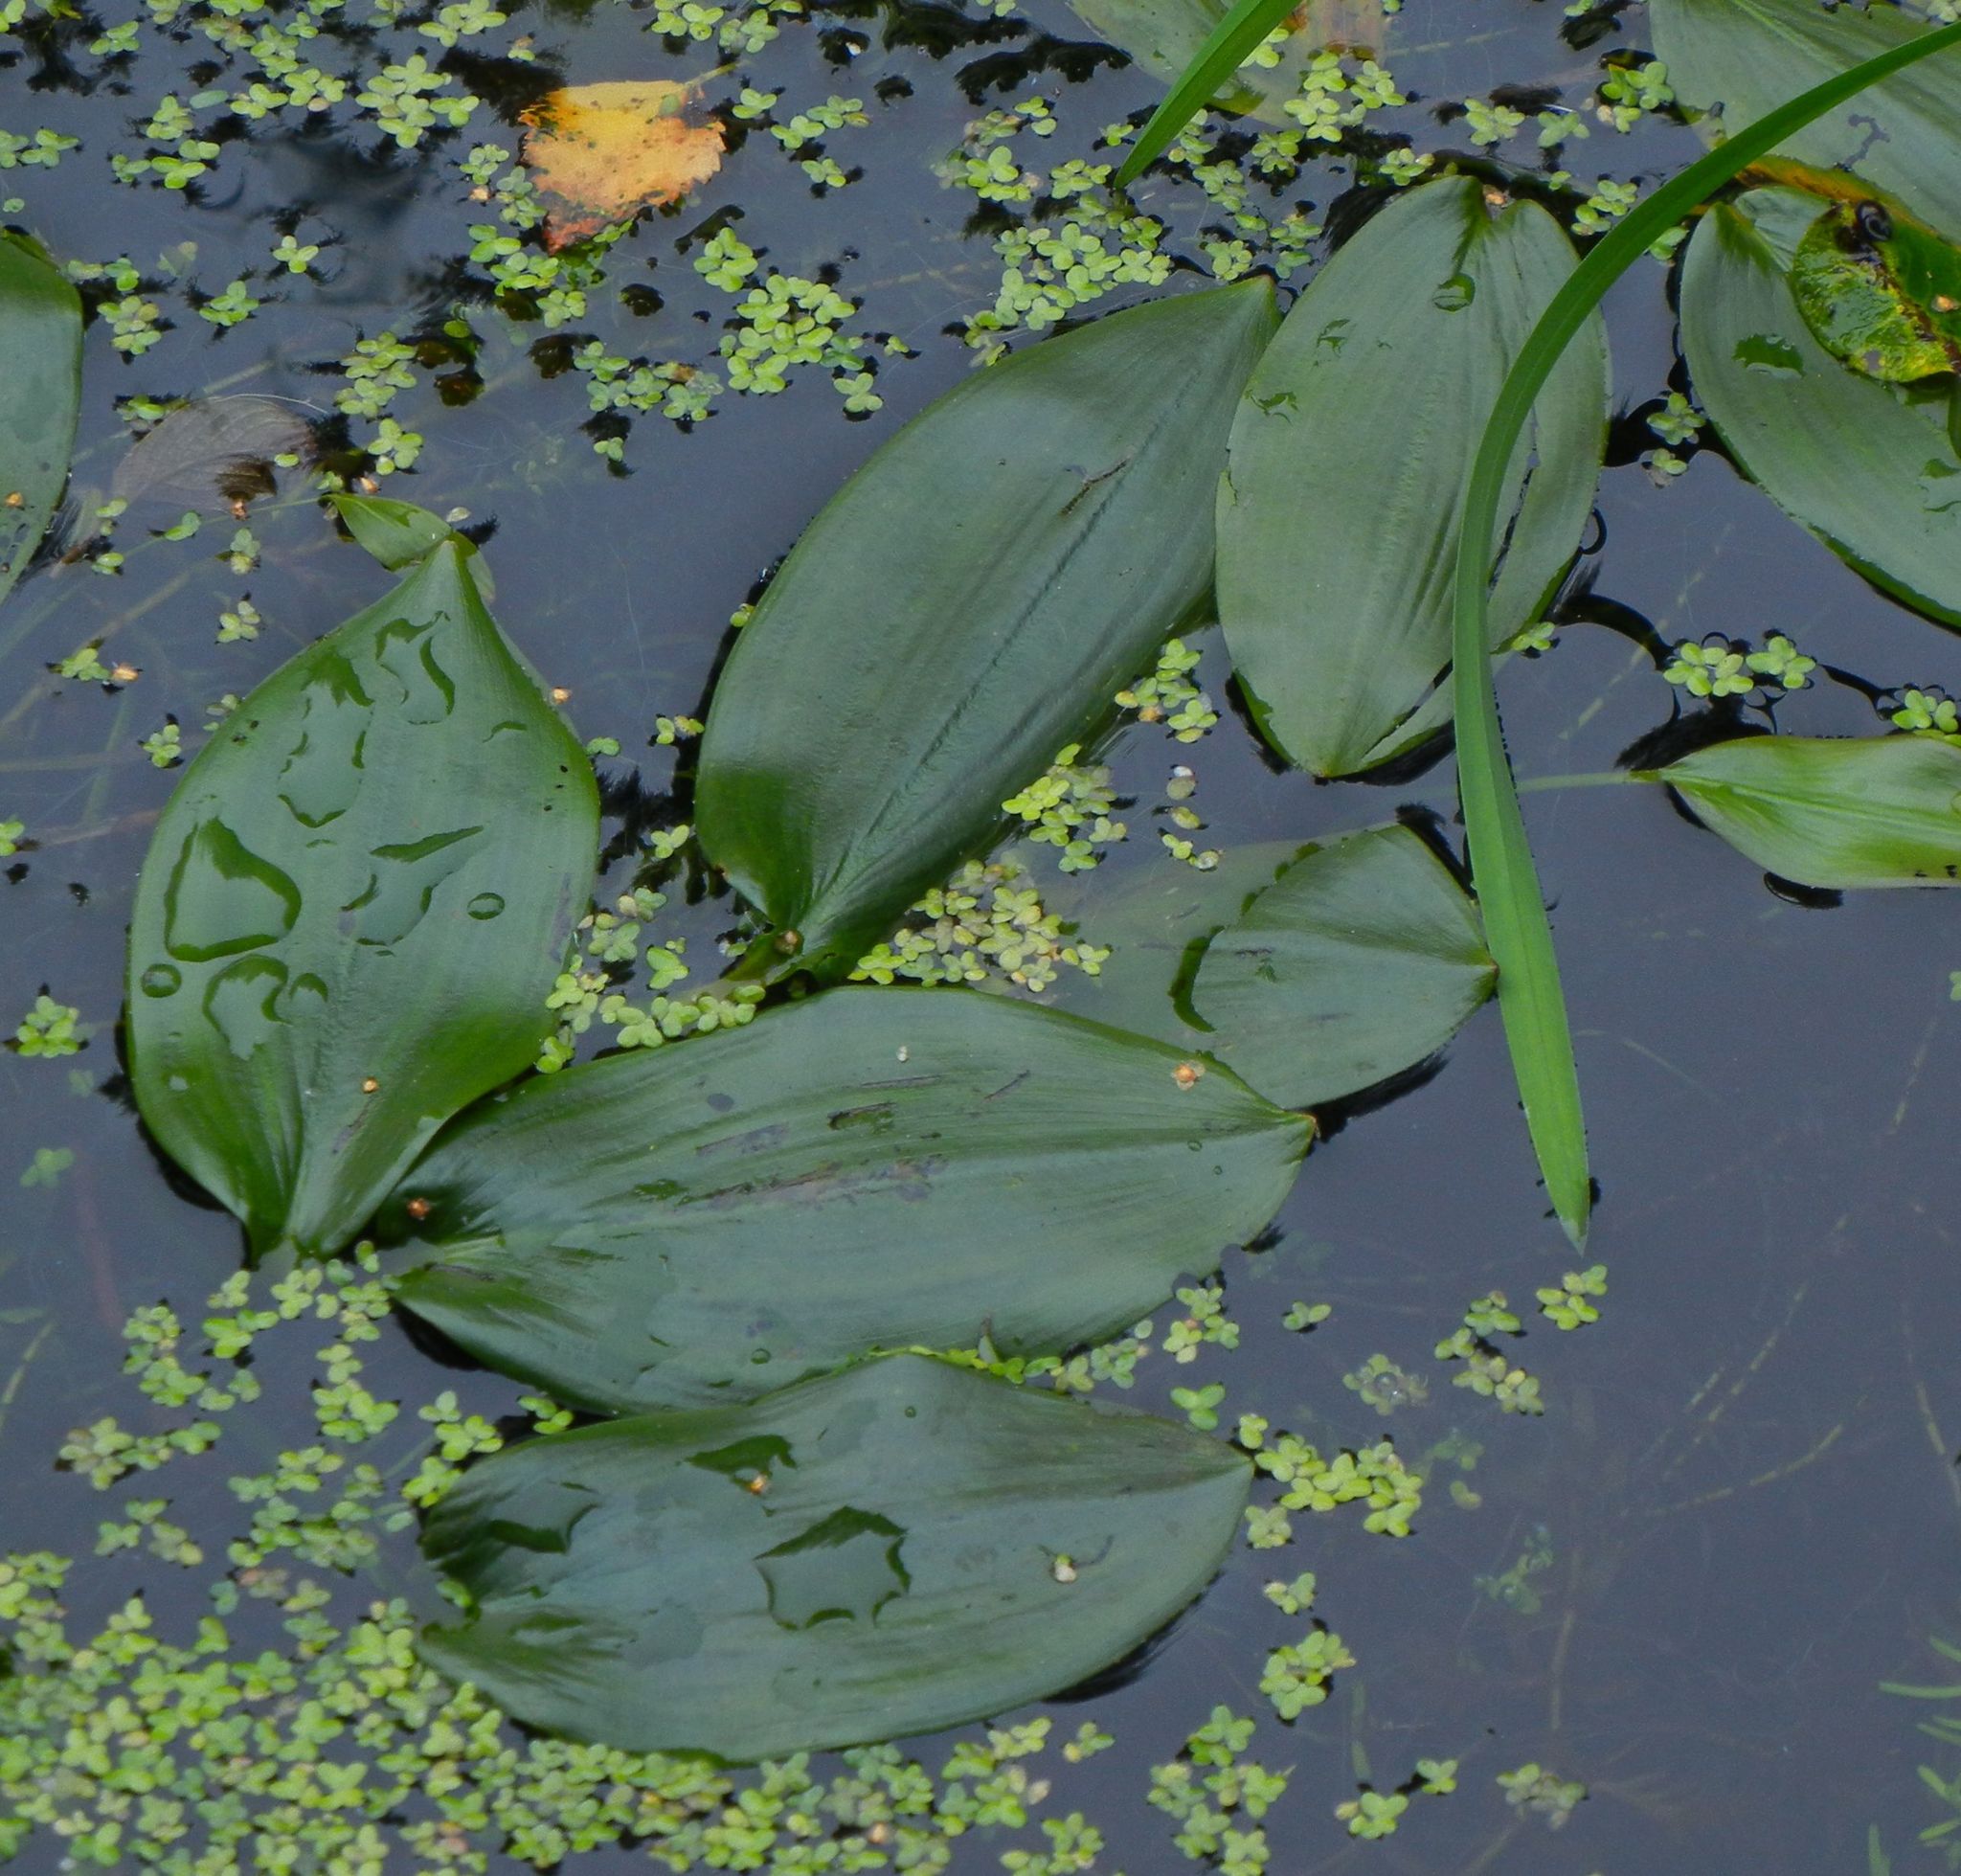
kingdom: Plantae
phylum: Tracheophyta
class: Liliopsida
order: Alismatales
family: Potamogetonaceae
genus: Potamogeton
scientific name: Potamogeton natans
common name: Broad-leaved pondweed
